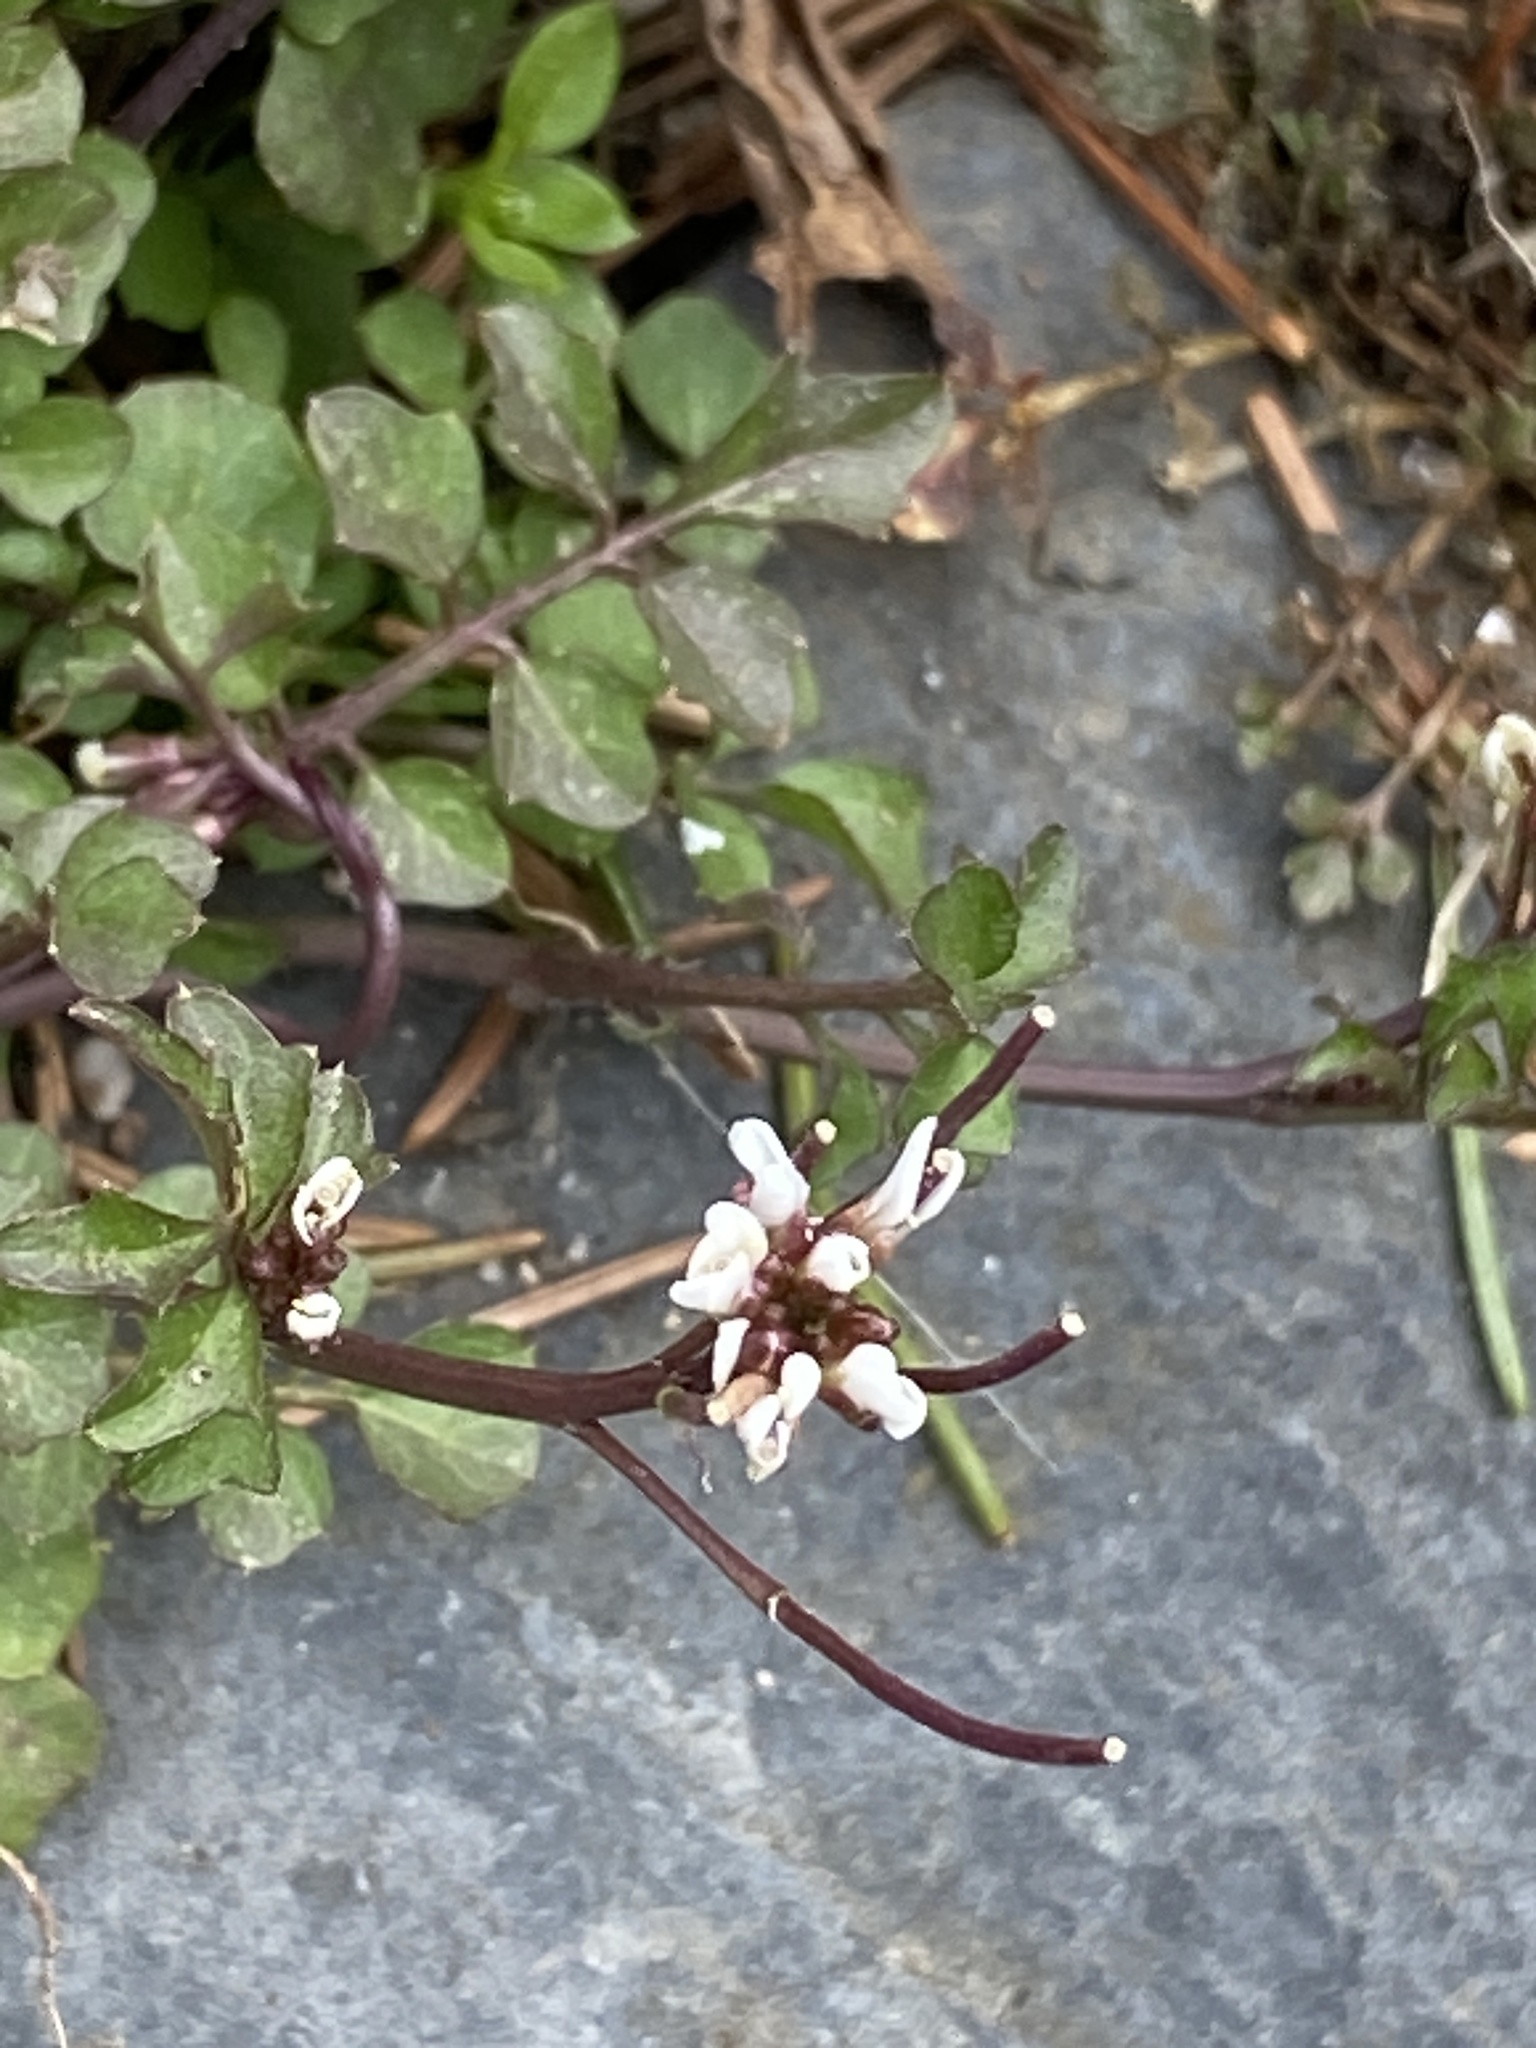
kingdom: Plantae
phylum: Tracheophyta
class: Magnoliopsida
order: Brassicales
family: Brassicaceae
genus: Cardamine
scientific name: Cardamine hirsuta
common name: Hairy bittercress
